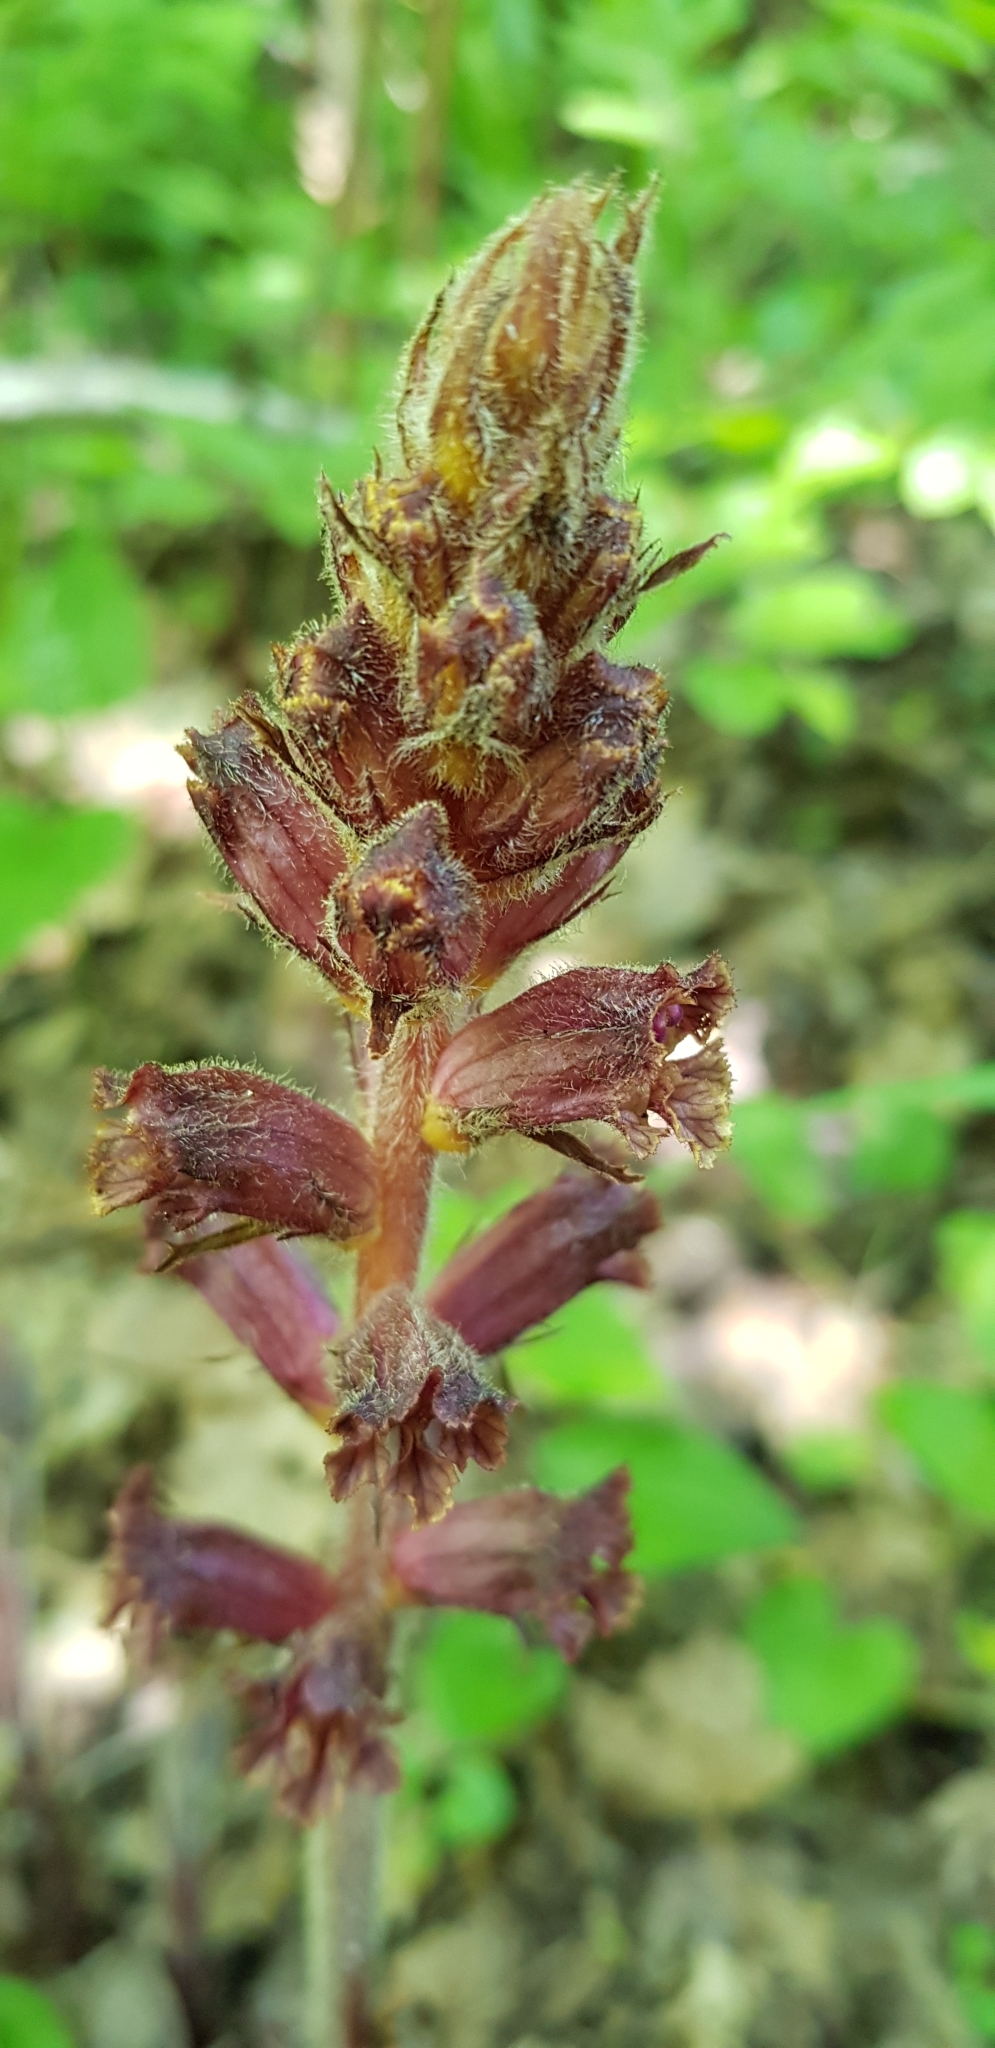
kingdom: Plantae
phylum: Tracheophyta
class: Magnoliopsida
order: Lamiales
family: Orobanchaceae
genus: Orobanche
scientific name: Orobanche laxissima
